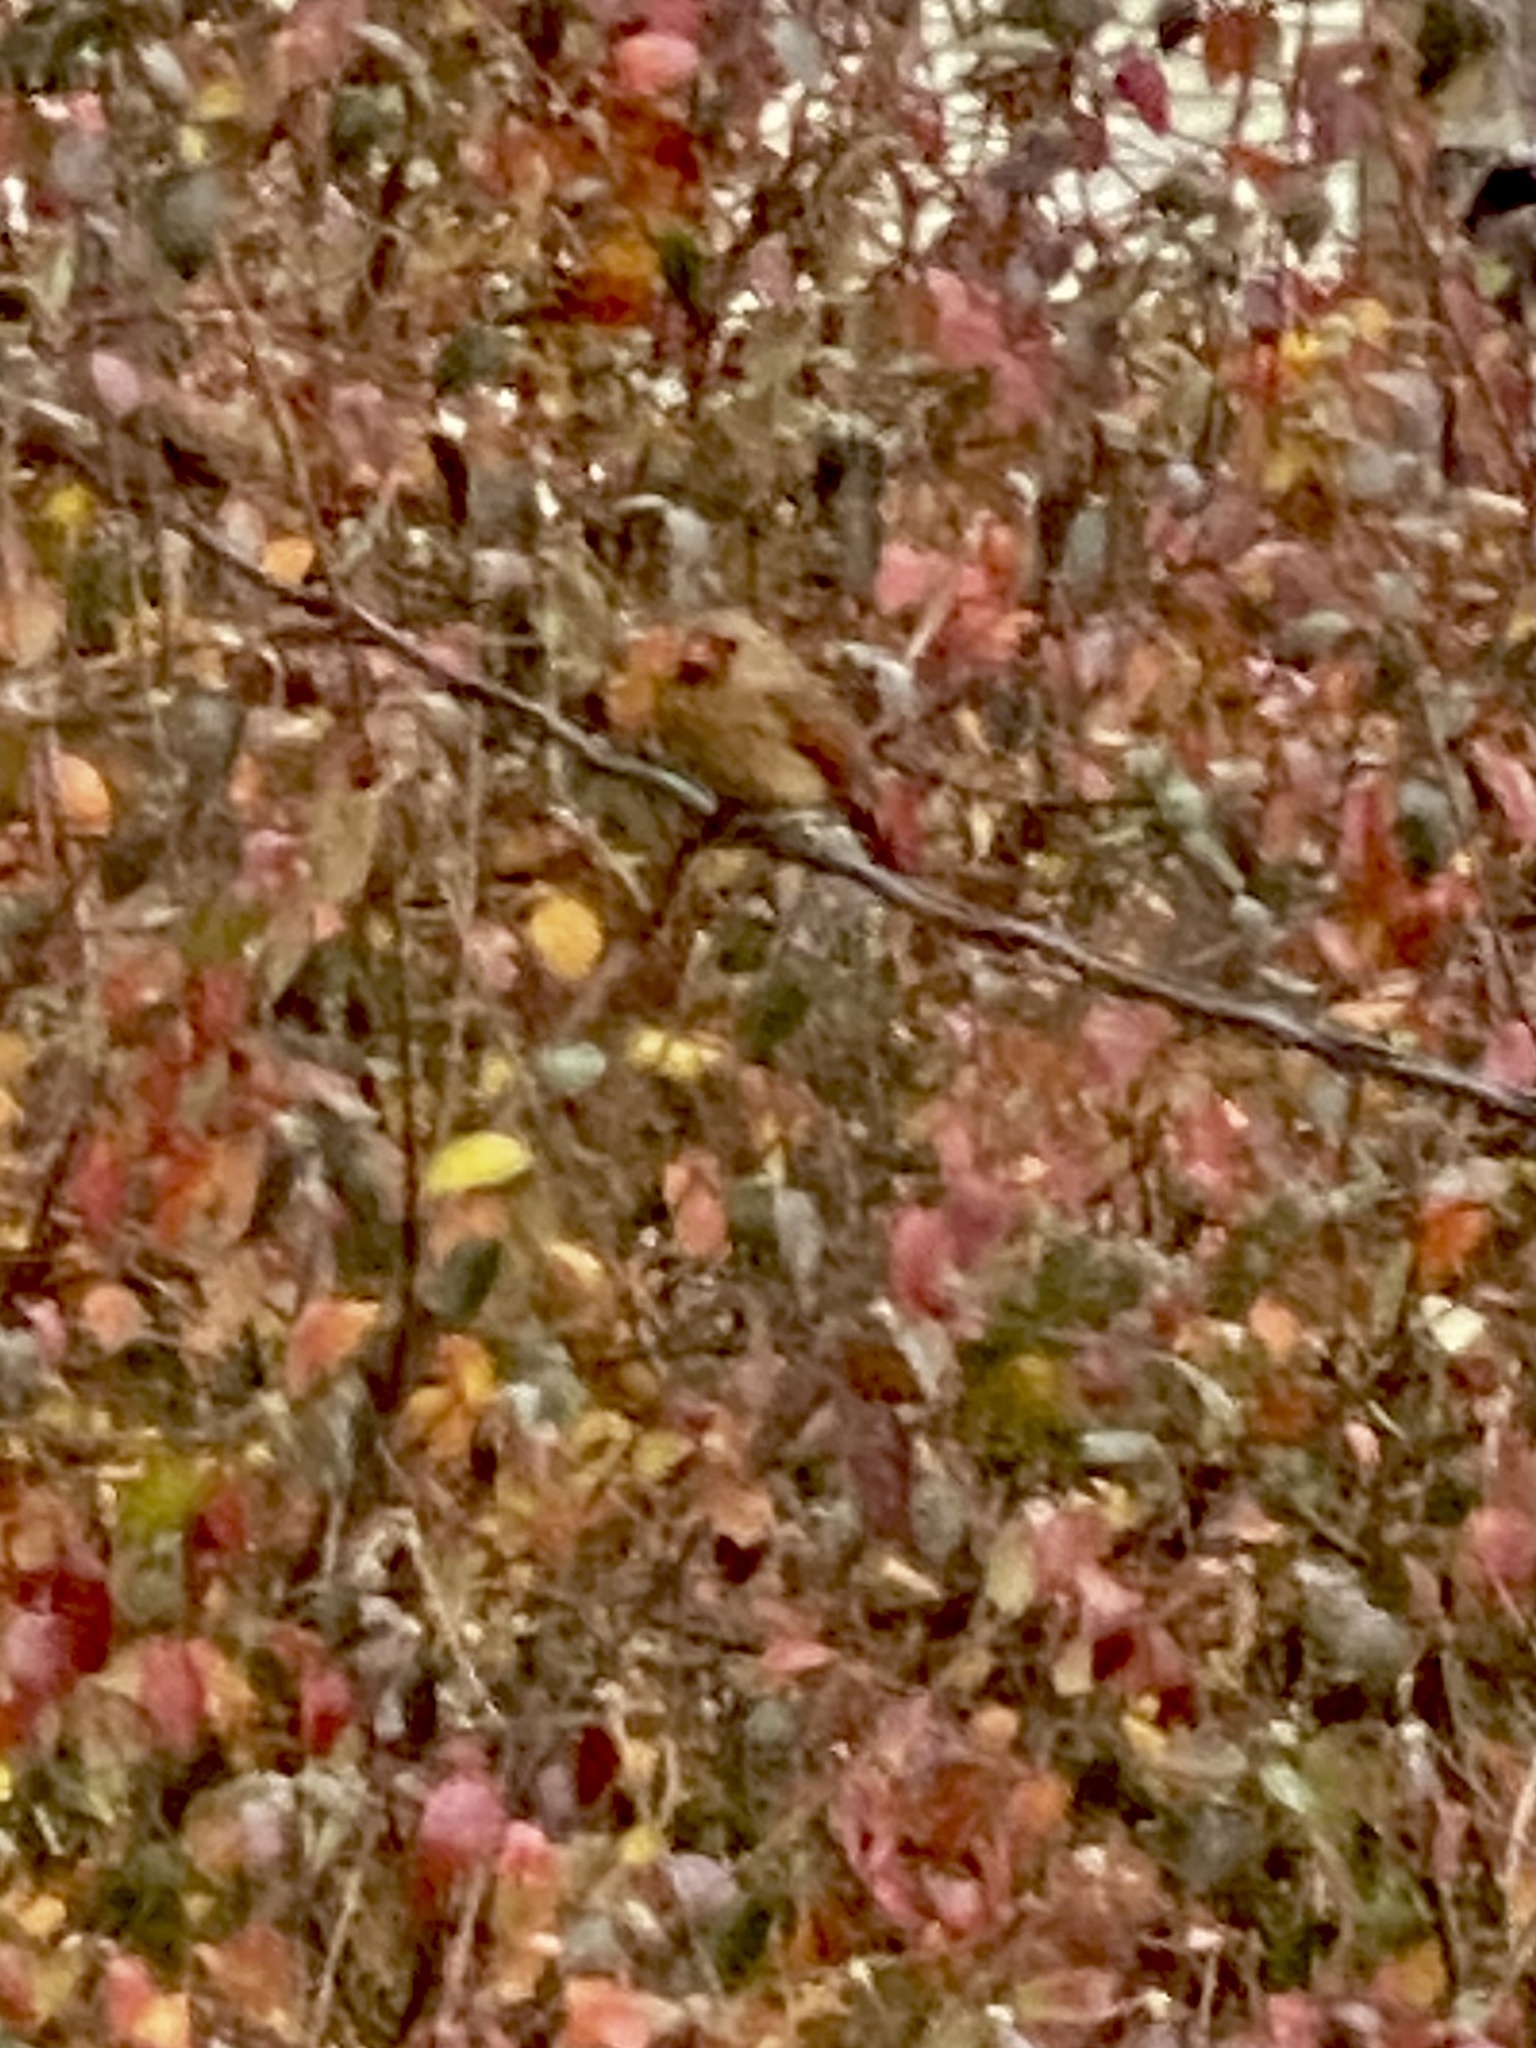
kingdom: Animalia
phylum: Chordata
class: Aves
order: Passeriformes
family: Cardinalidae
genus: Cardinalis
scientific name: Cardinalis cardinalis
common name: Northern cardinal
